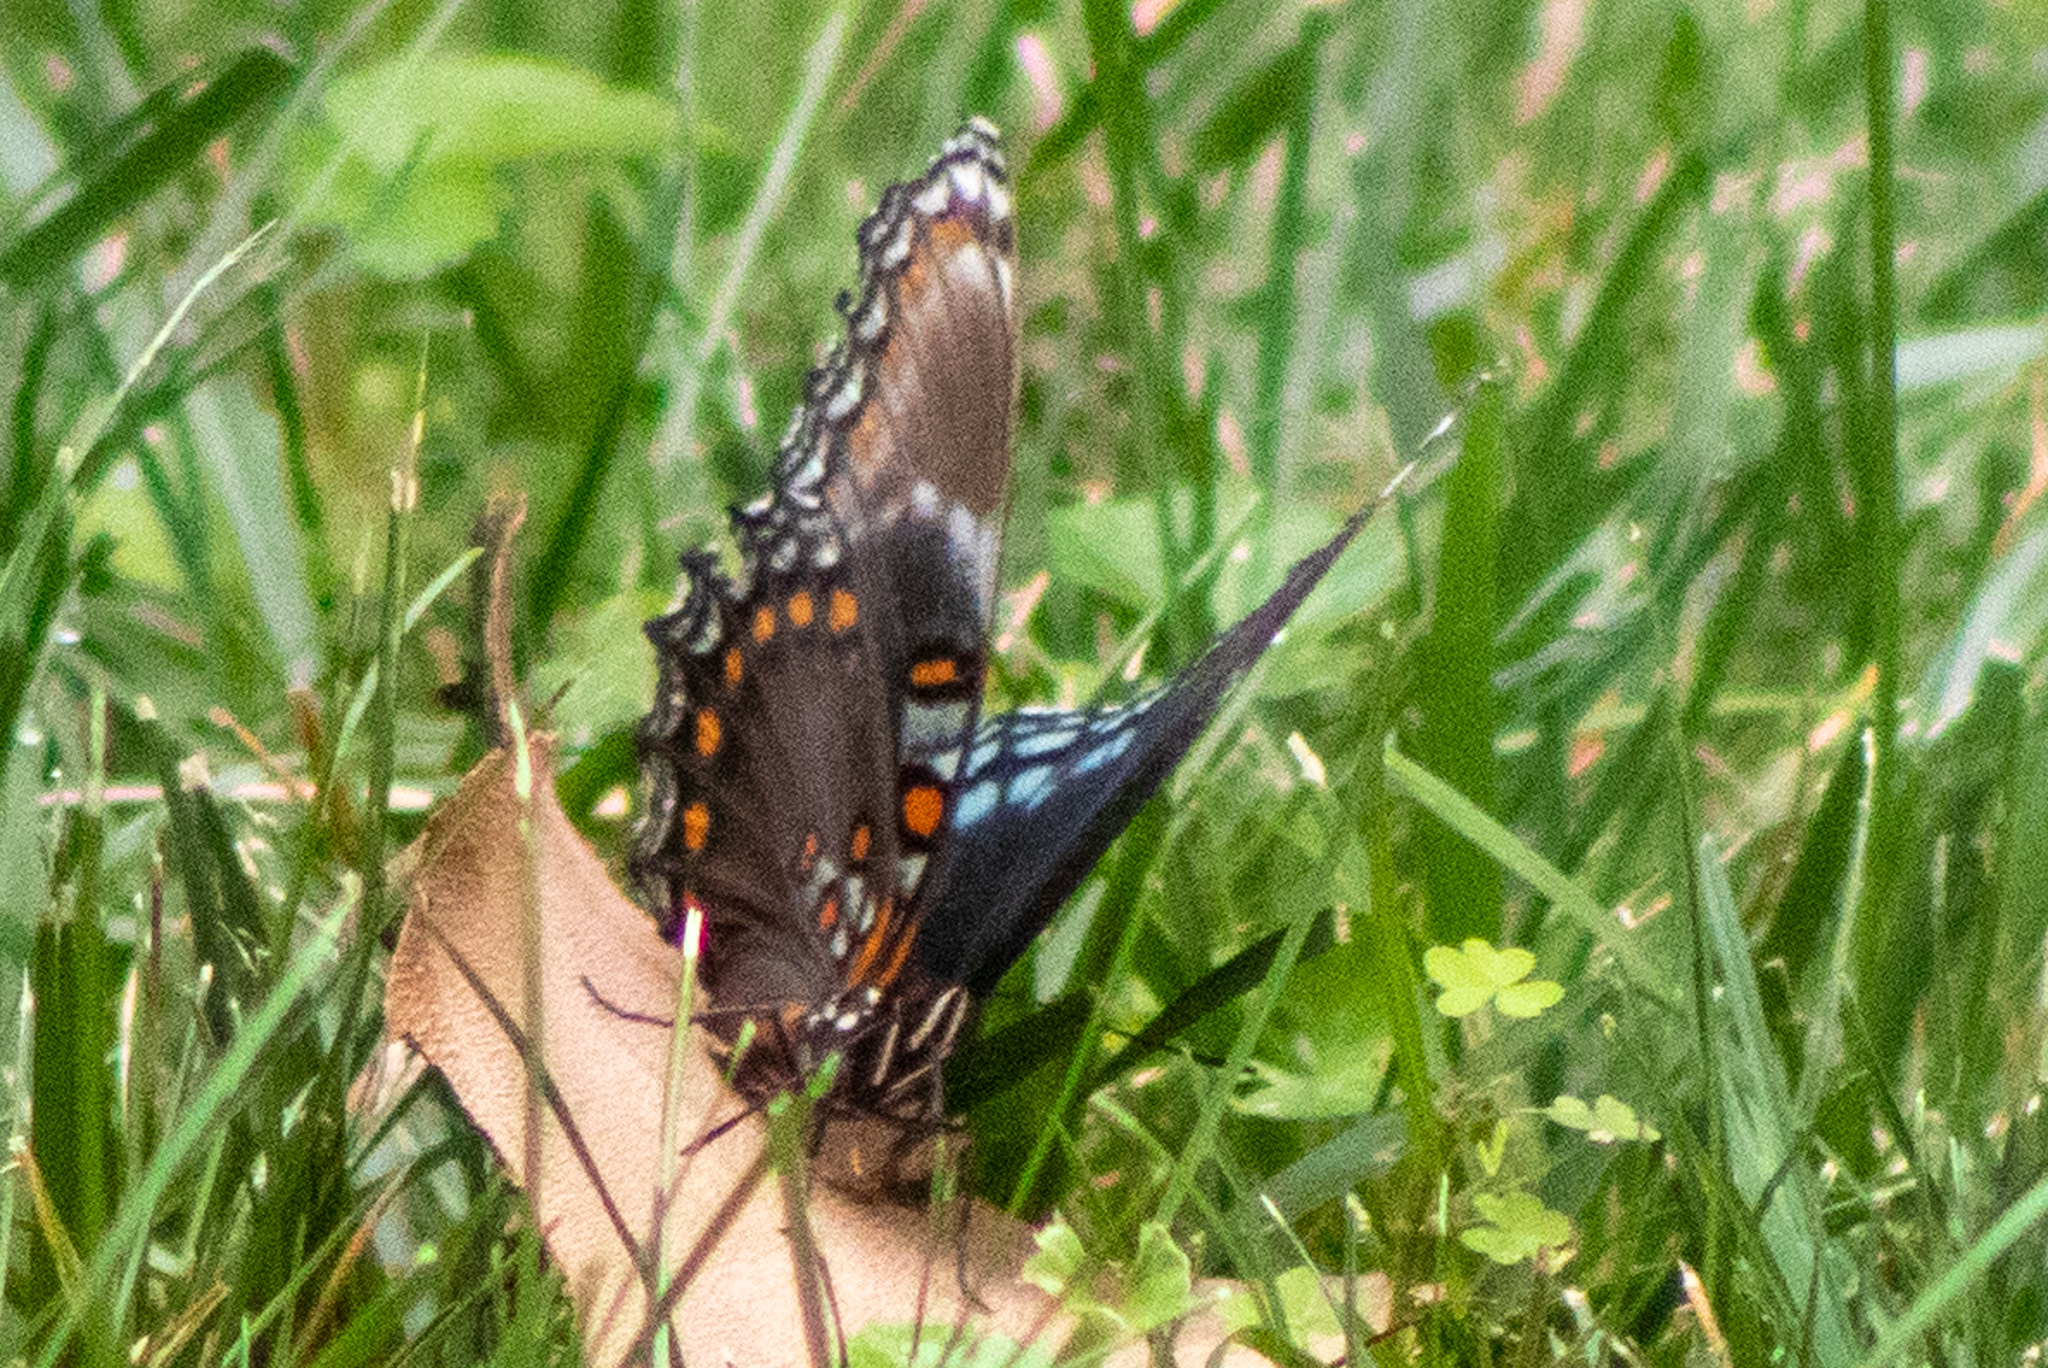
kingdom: Animalia
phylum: Arthropoda
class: Insecta
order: Lepidoptera
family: Nymphalidae
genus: Limenitis
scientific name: Limenitis astyanax
